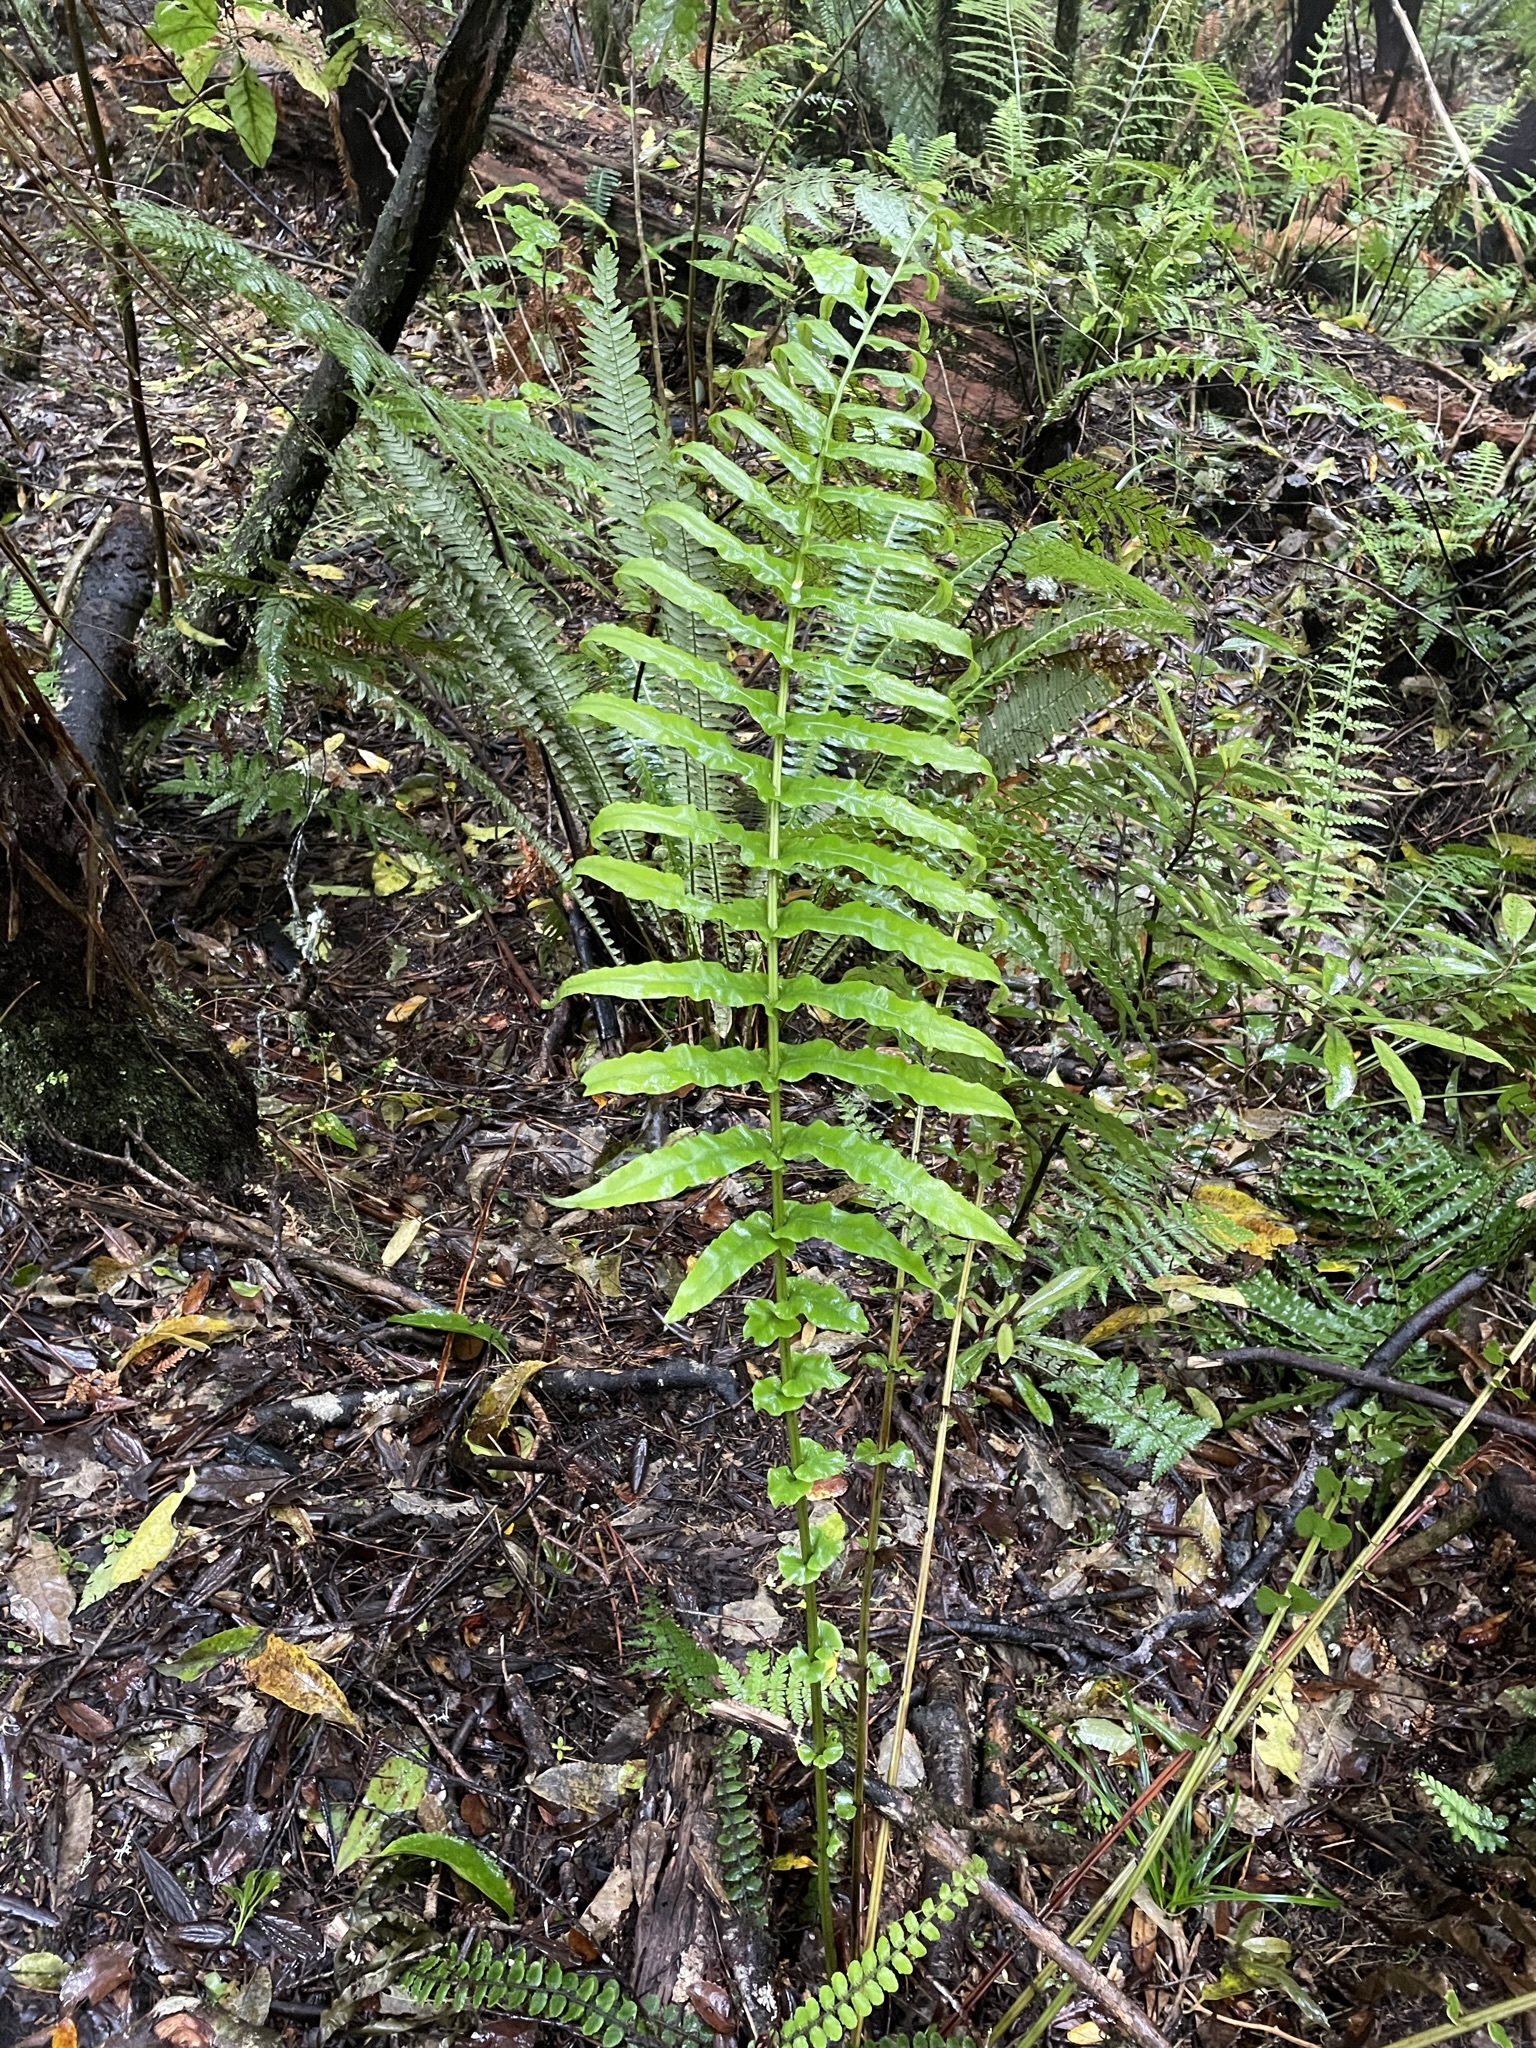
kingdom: Plantae
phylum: Tracheophyta
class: Polypodiopsida
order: Polypodiales
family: Blechnaceae
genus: Parablechnum
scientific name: Parablechnum novae-zelandiae
